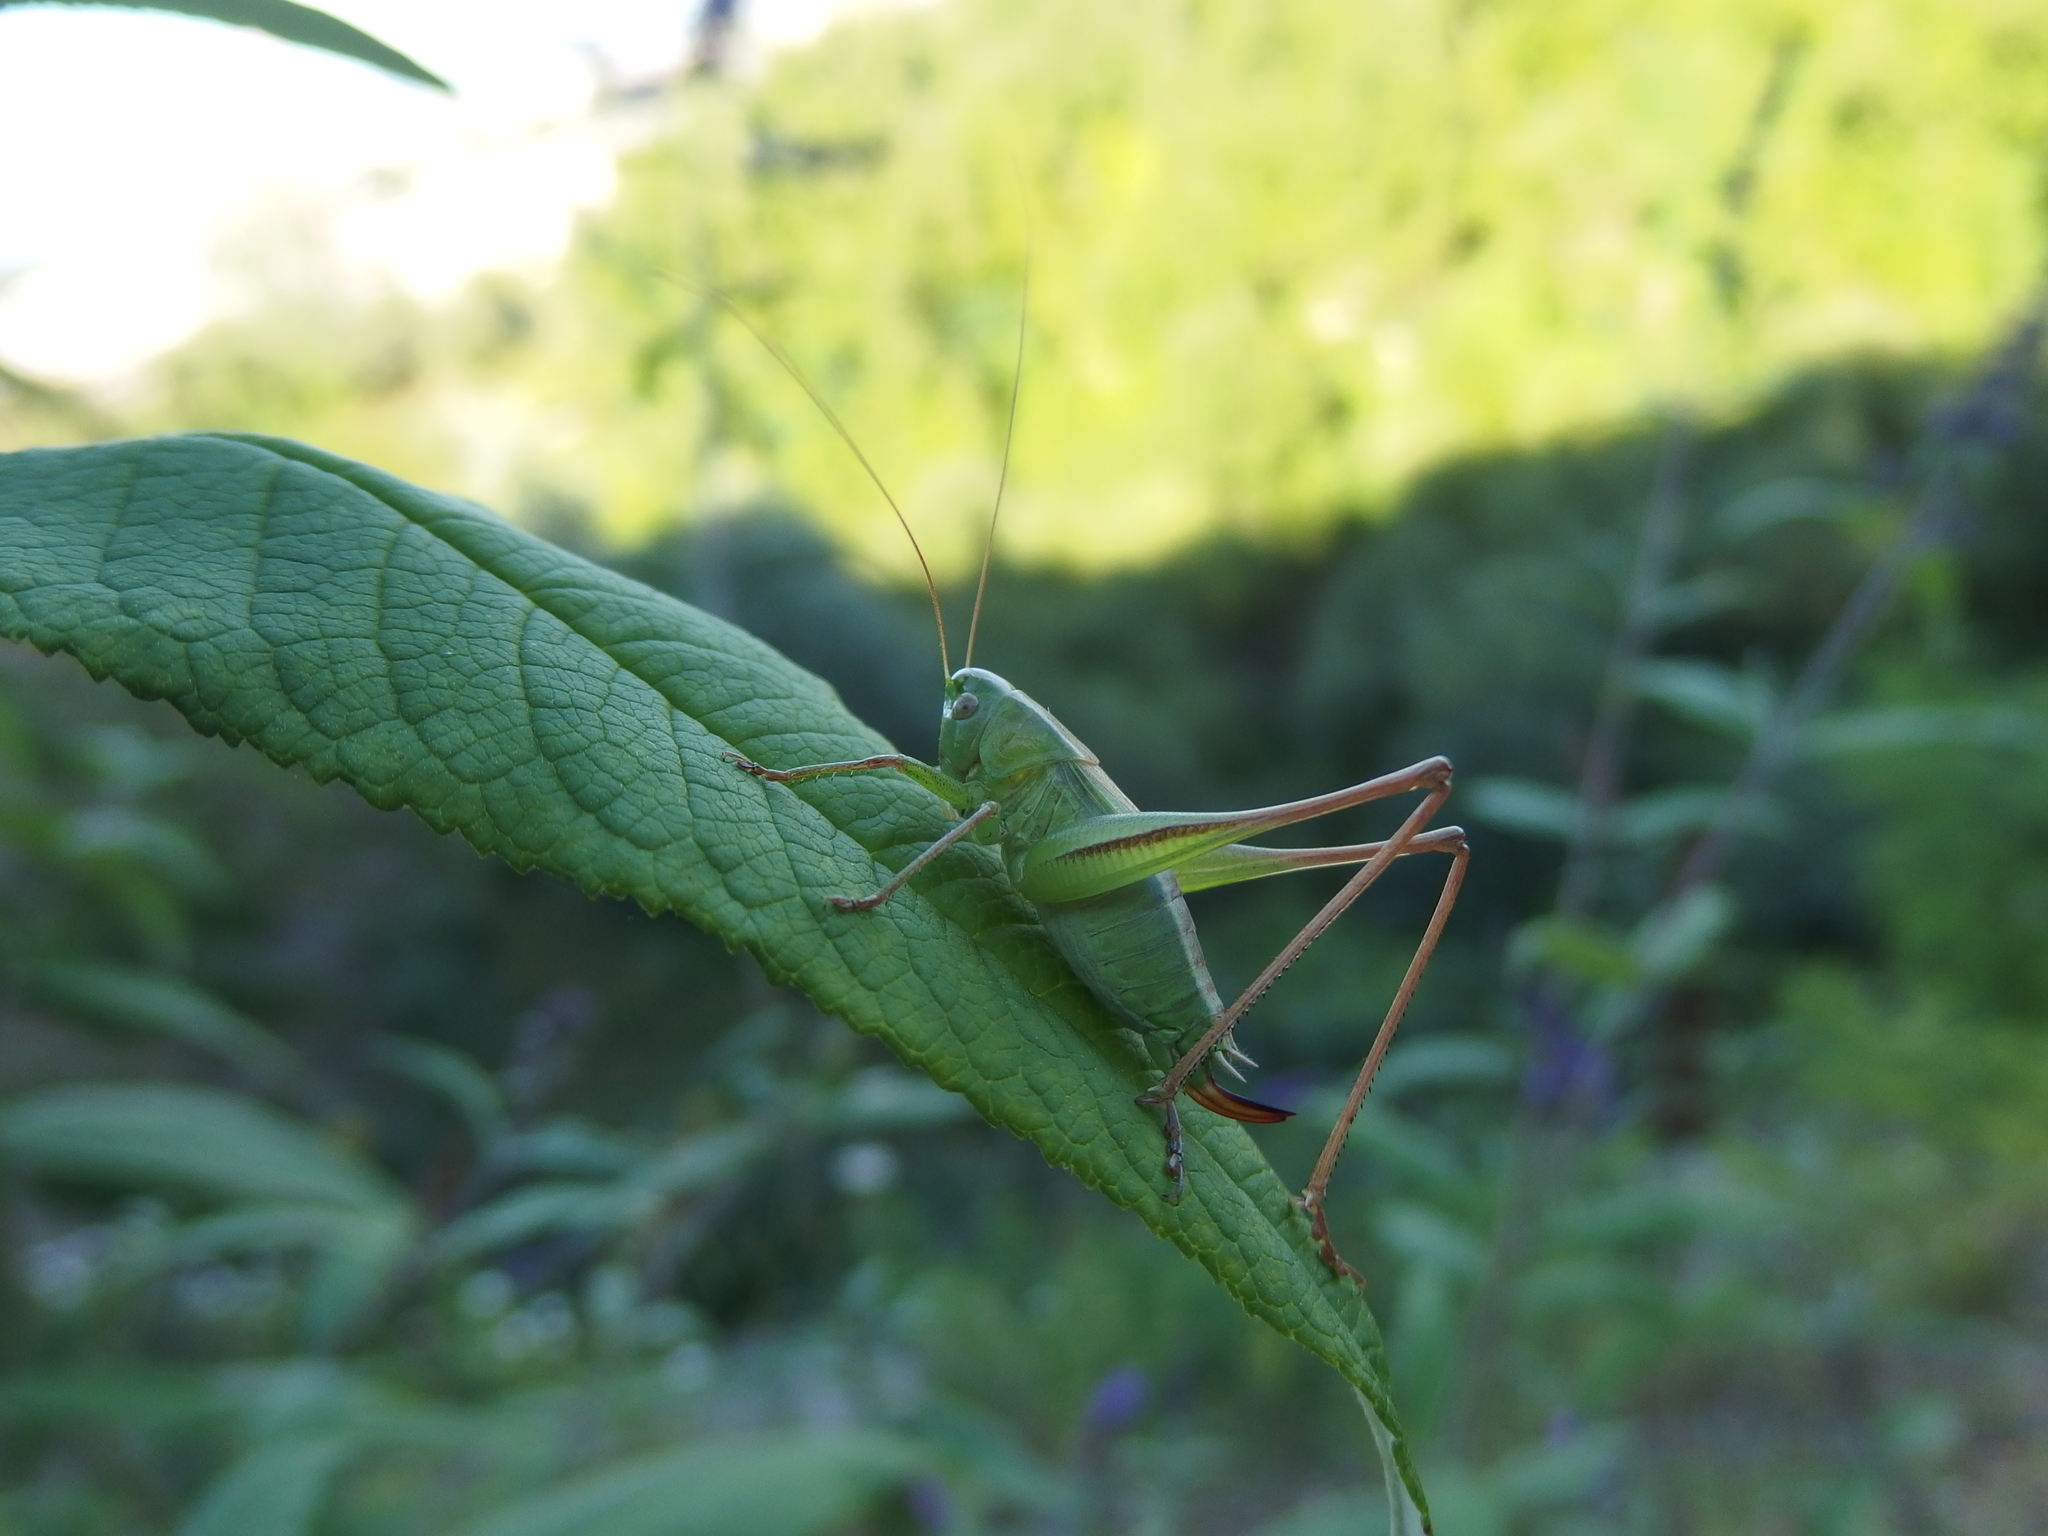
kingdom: Animalia
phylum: Arthropoda
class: Insecta
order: Orthoptera
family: Tettigoniidae
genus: Bicolorana
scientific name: Bicolorana bicolor
